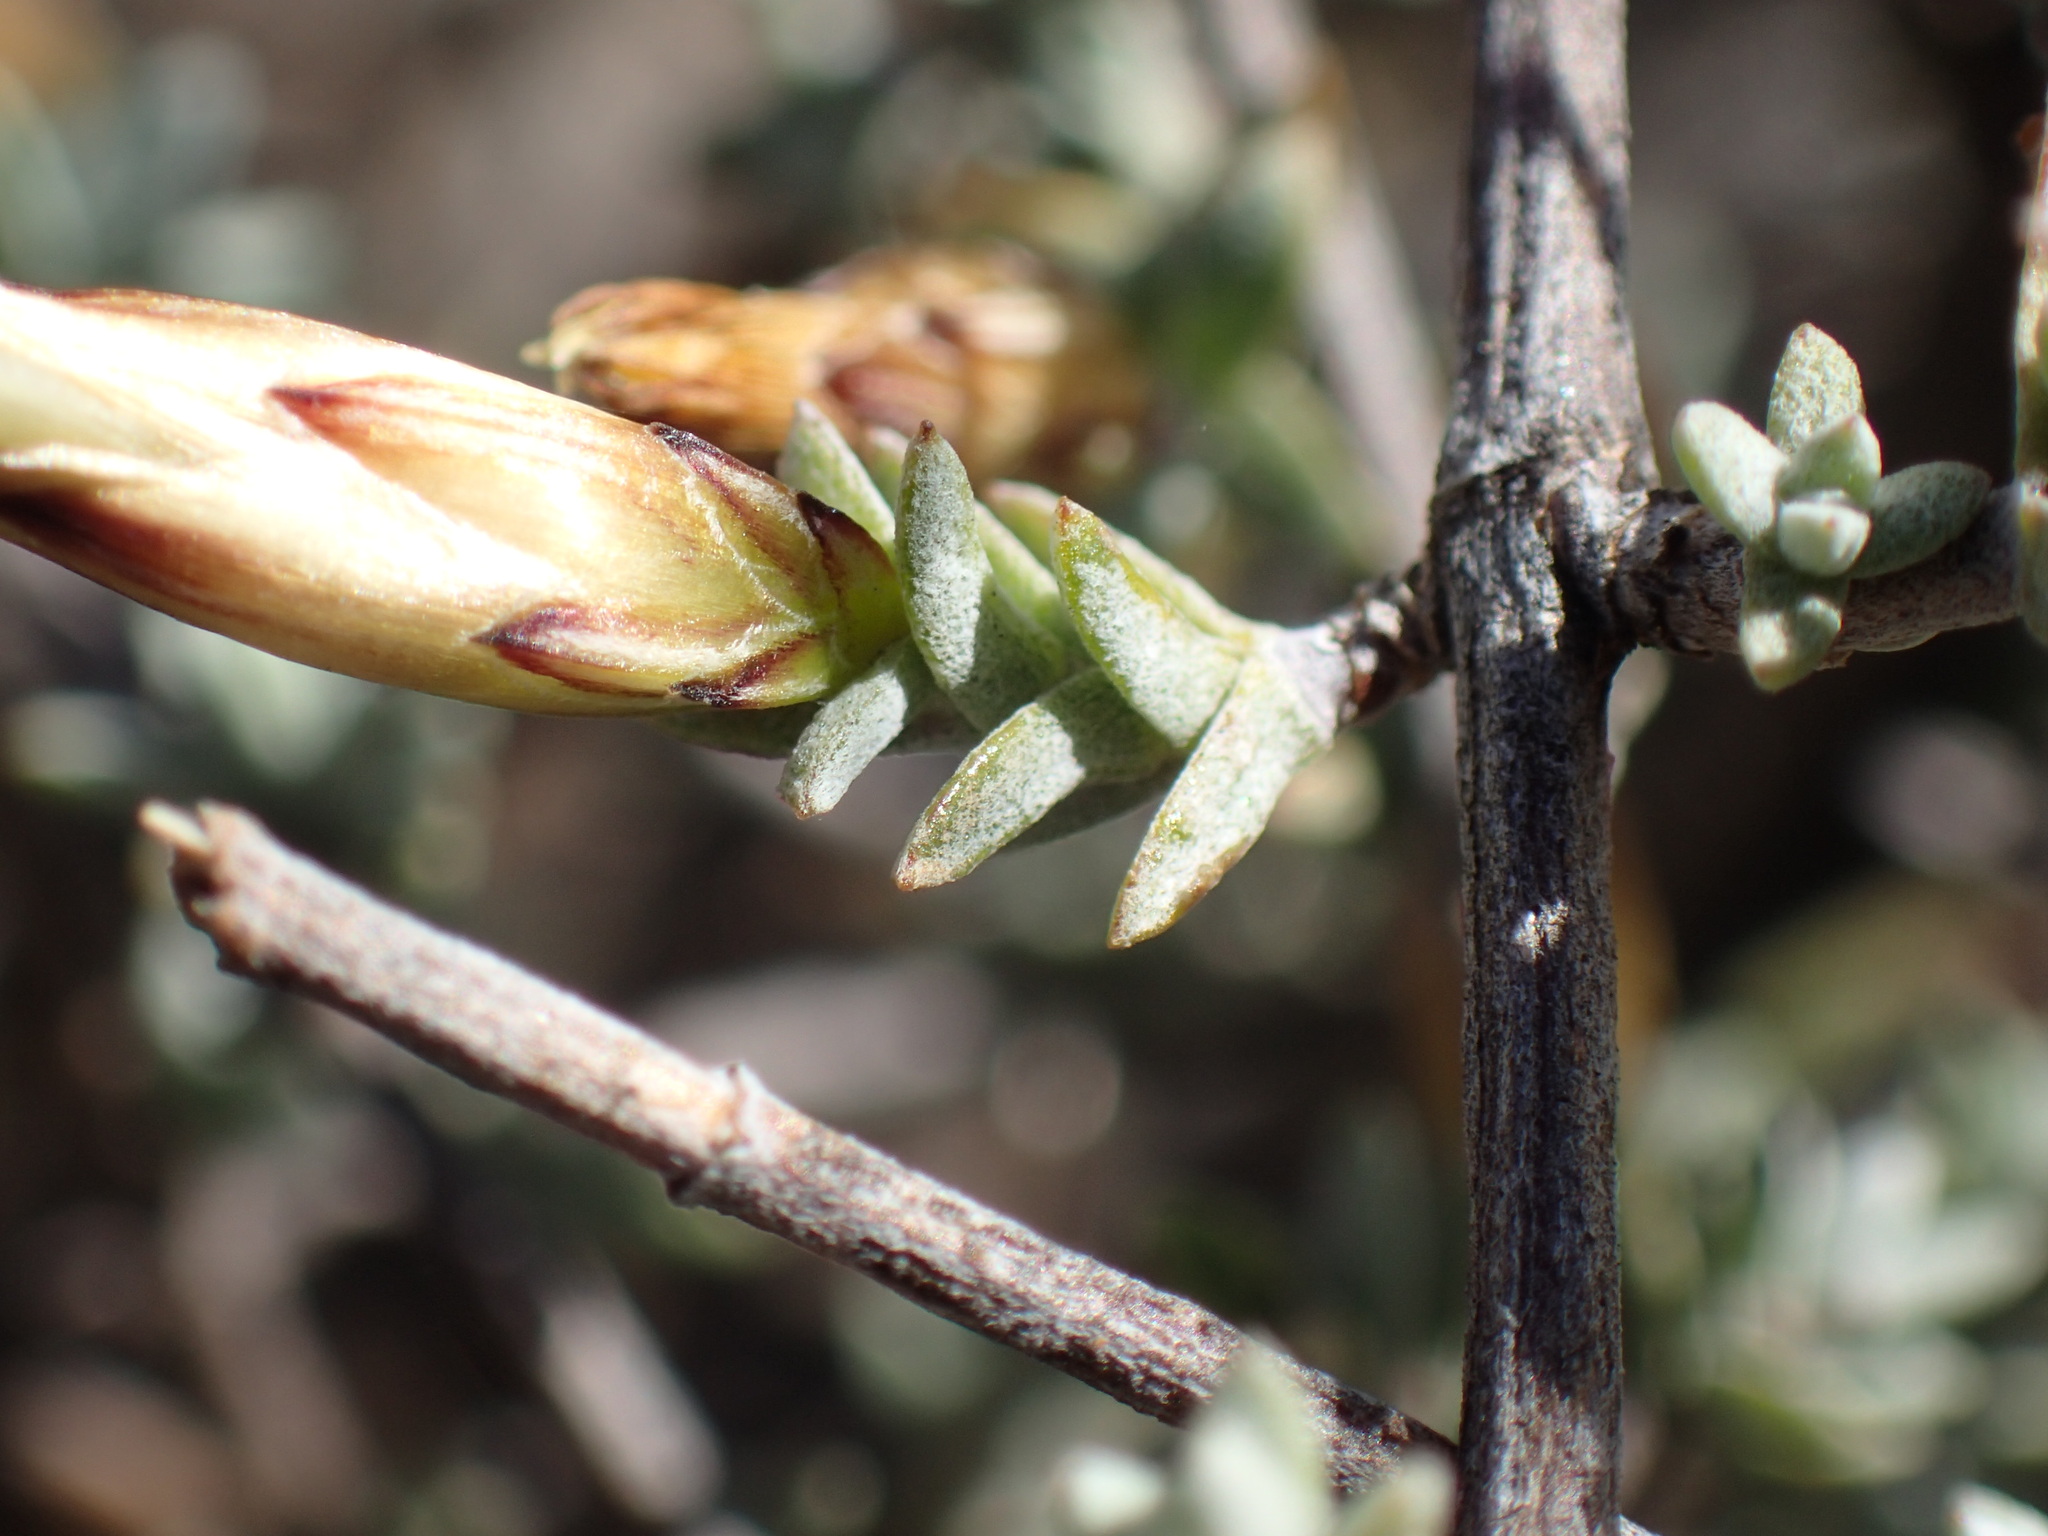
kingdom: Plantae
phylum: Tracheophyta
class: Magnoliopsida
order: Asterales
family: Asteraceae
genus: Pteronia
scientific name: Pteronia glauca
